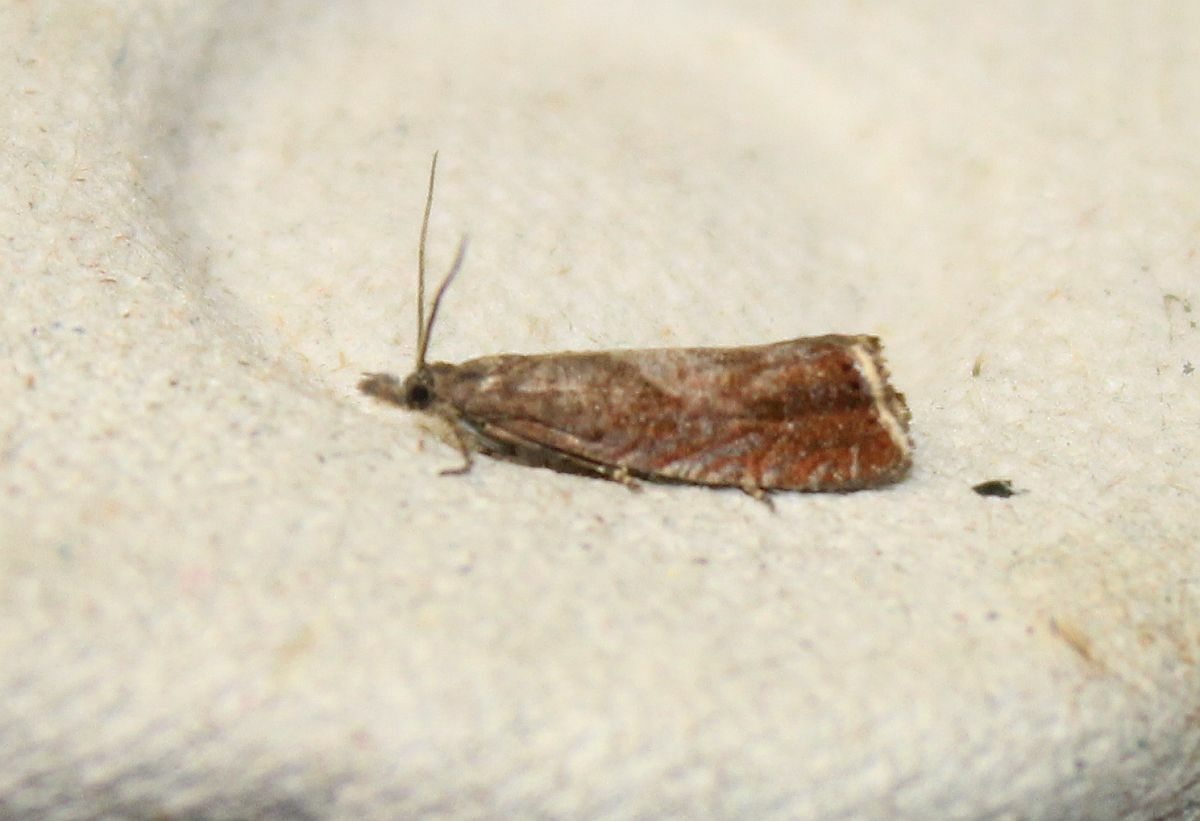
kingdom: Animalia
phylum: Arthropoda
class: Insecta
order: Lepidoptera
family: Tortricidae
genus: Dichrorampha
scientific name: Dichrorampha acuminatana
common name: Sharp-winged drill
